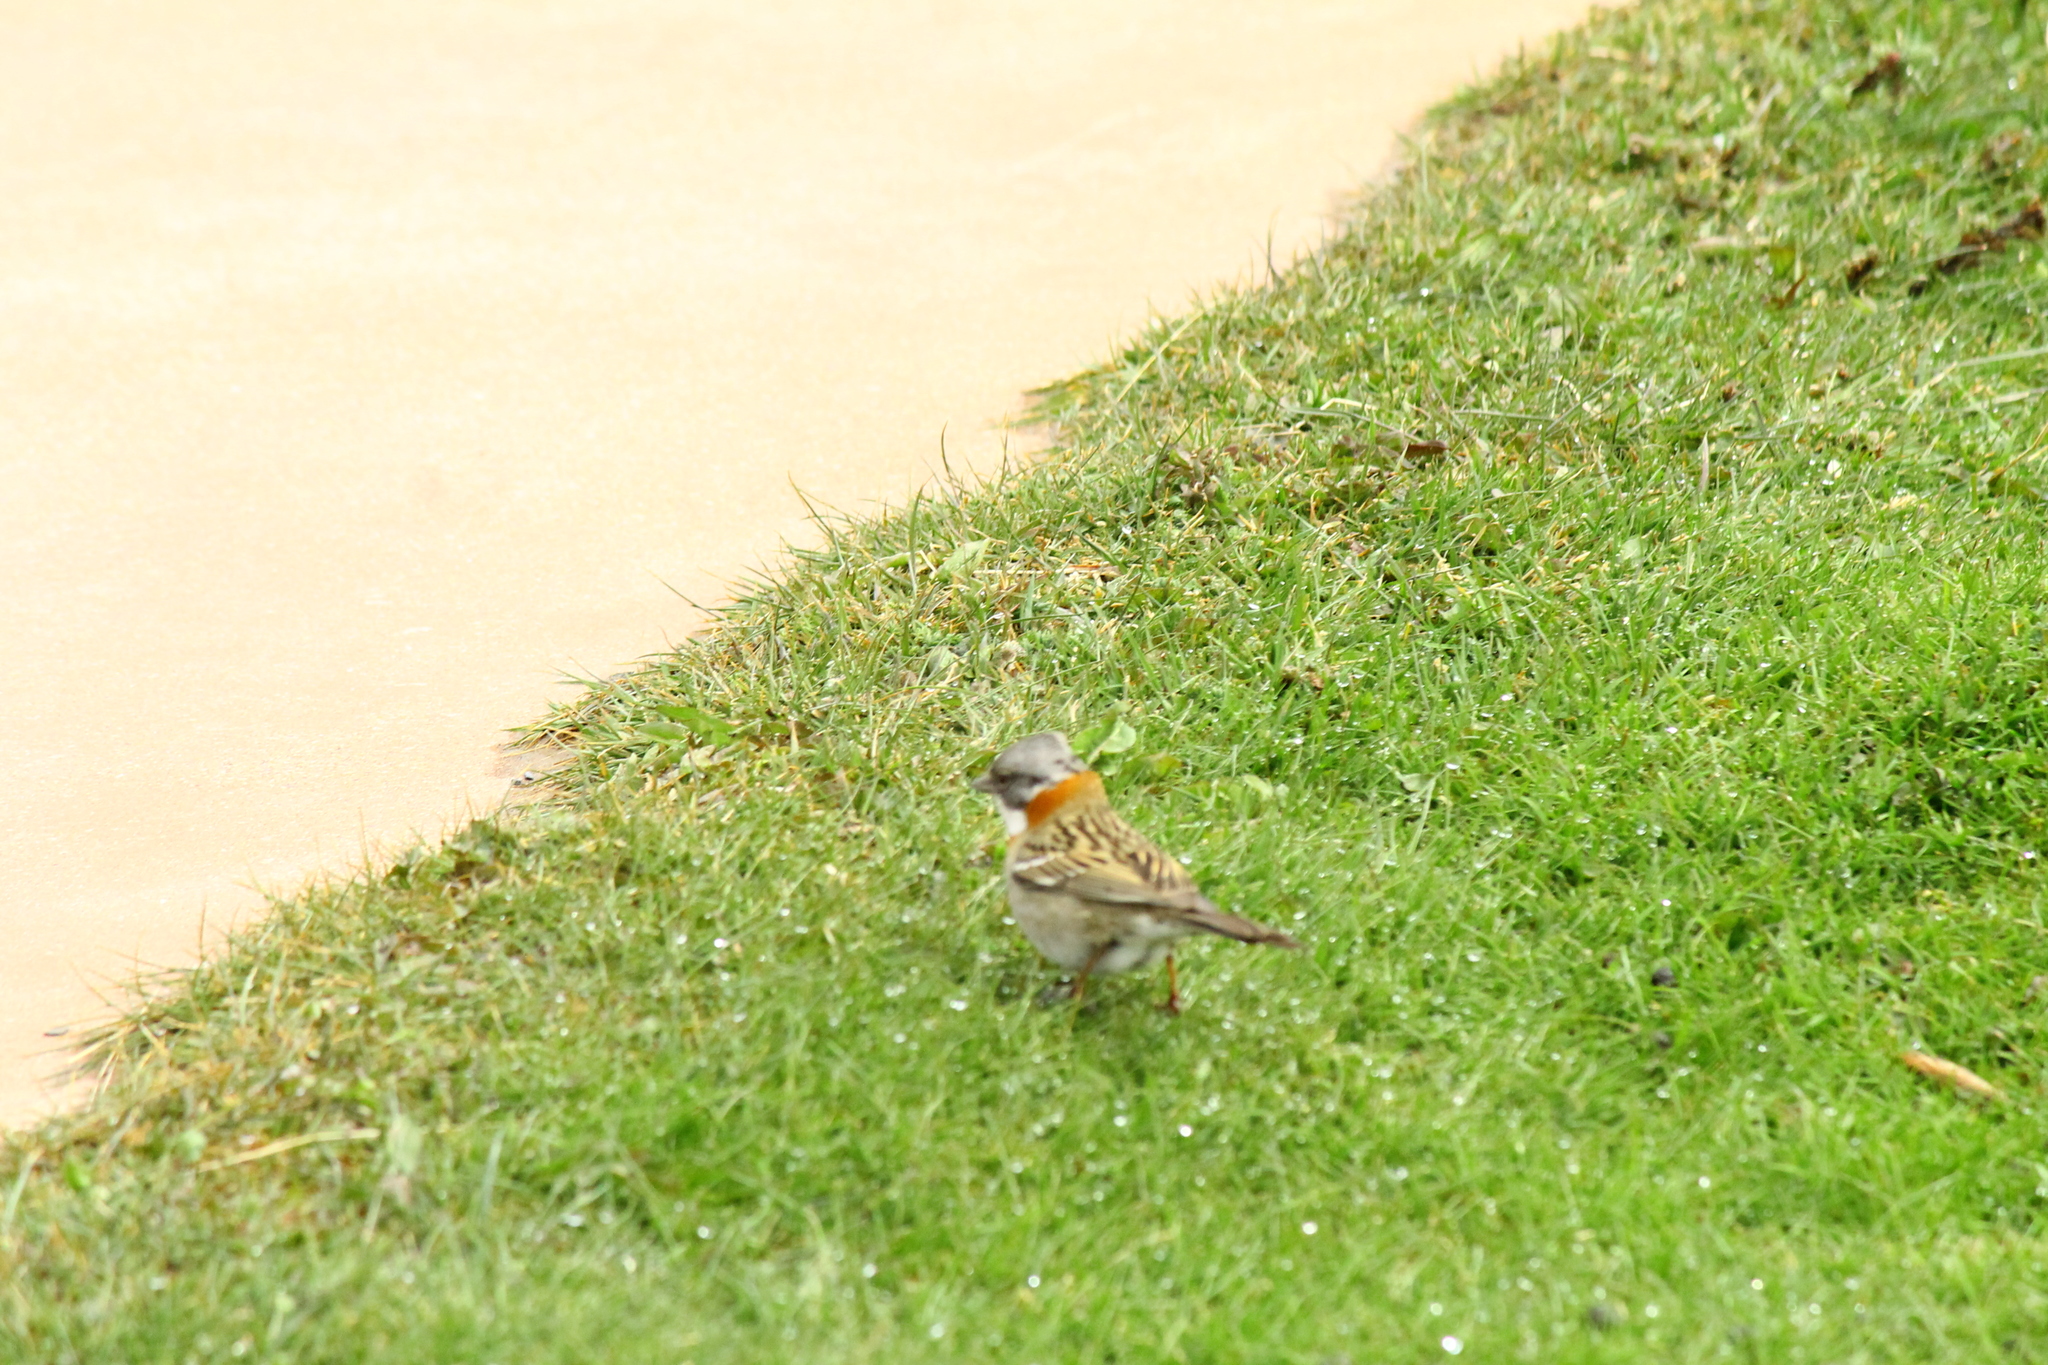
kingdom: Animalia
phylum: Chordata
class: Aves
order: Passeriformes
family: Passerellidae
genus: Zonotrichia
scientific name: Zonotrichia capensis
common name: Rufous-collared sparrow
